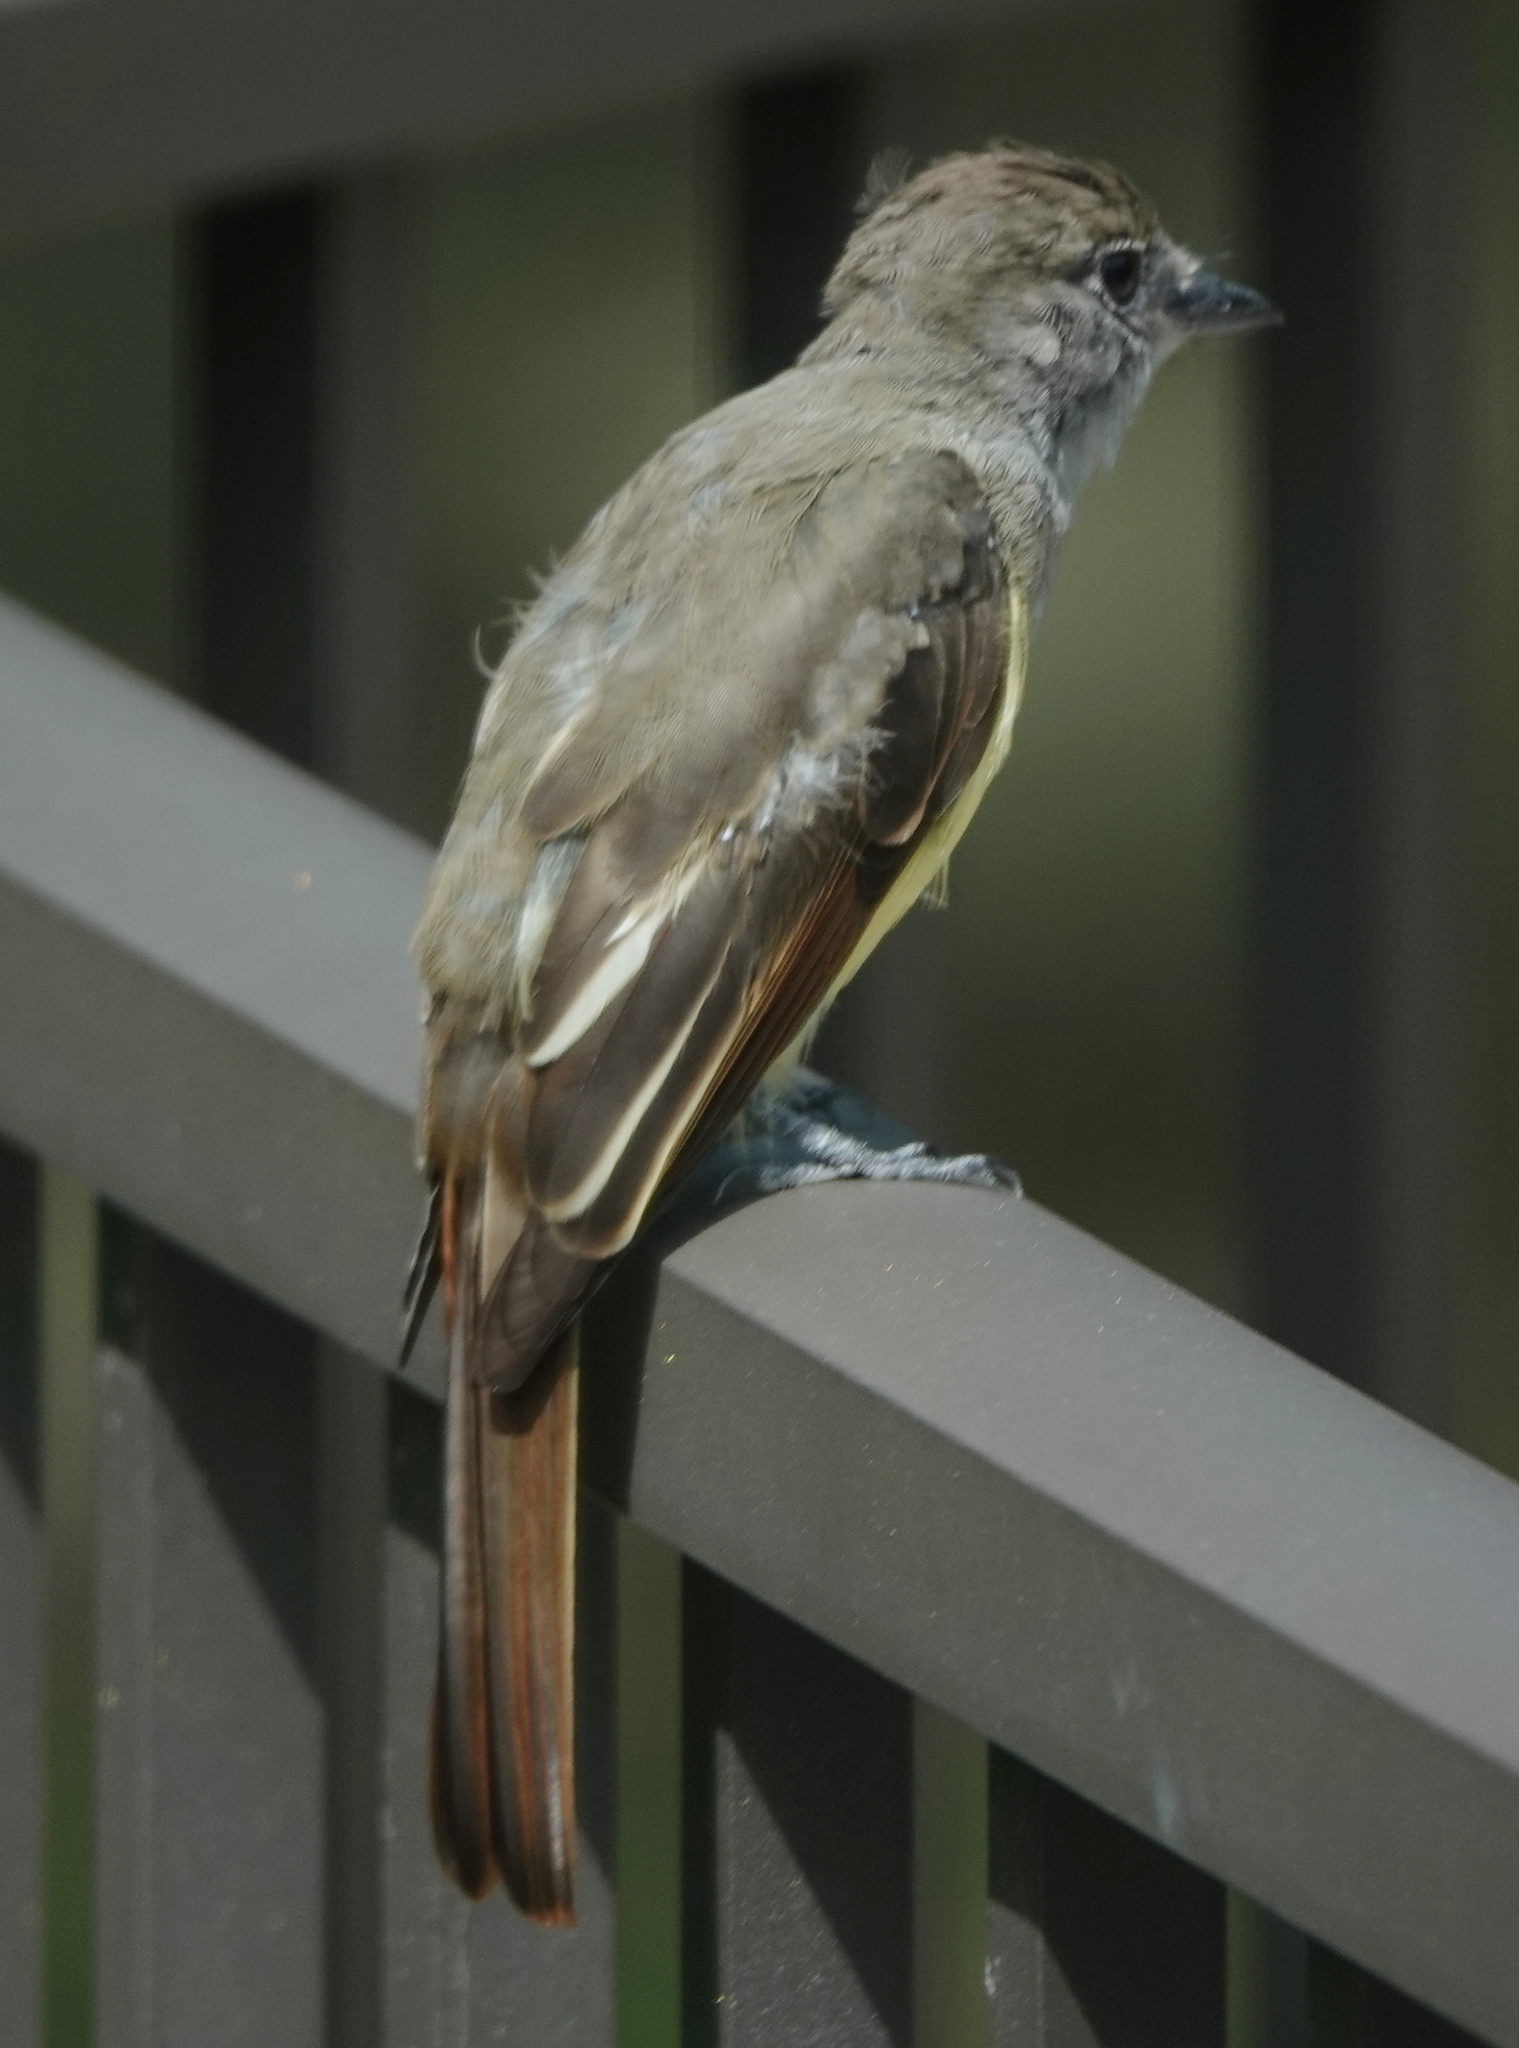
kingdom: Animalia
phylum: Chordata
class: Aves
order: Passeriformes
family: Tyrannidae
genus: Myiarchus
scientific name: Myiarchus crinitus
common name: Great crested flycatcher
